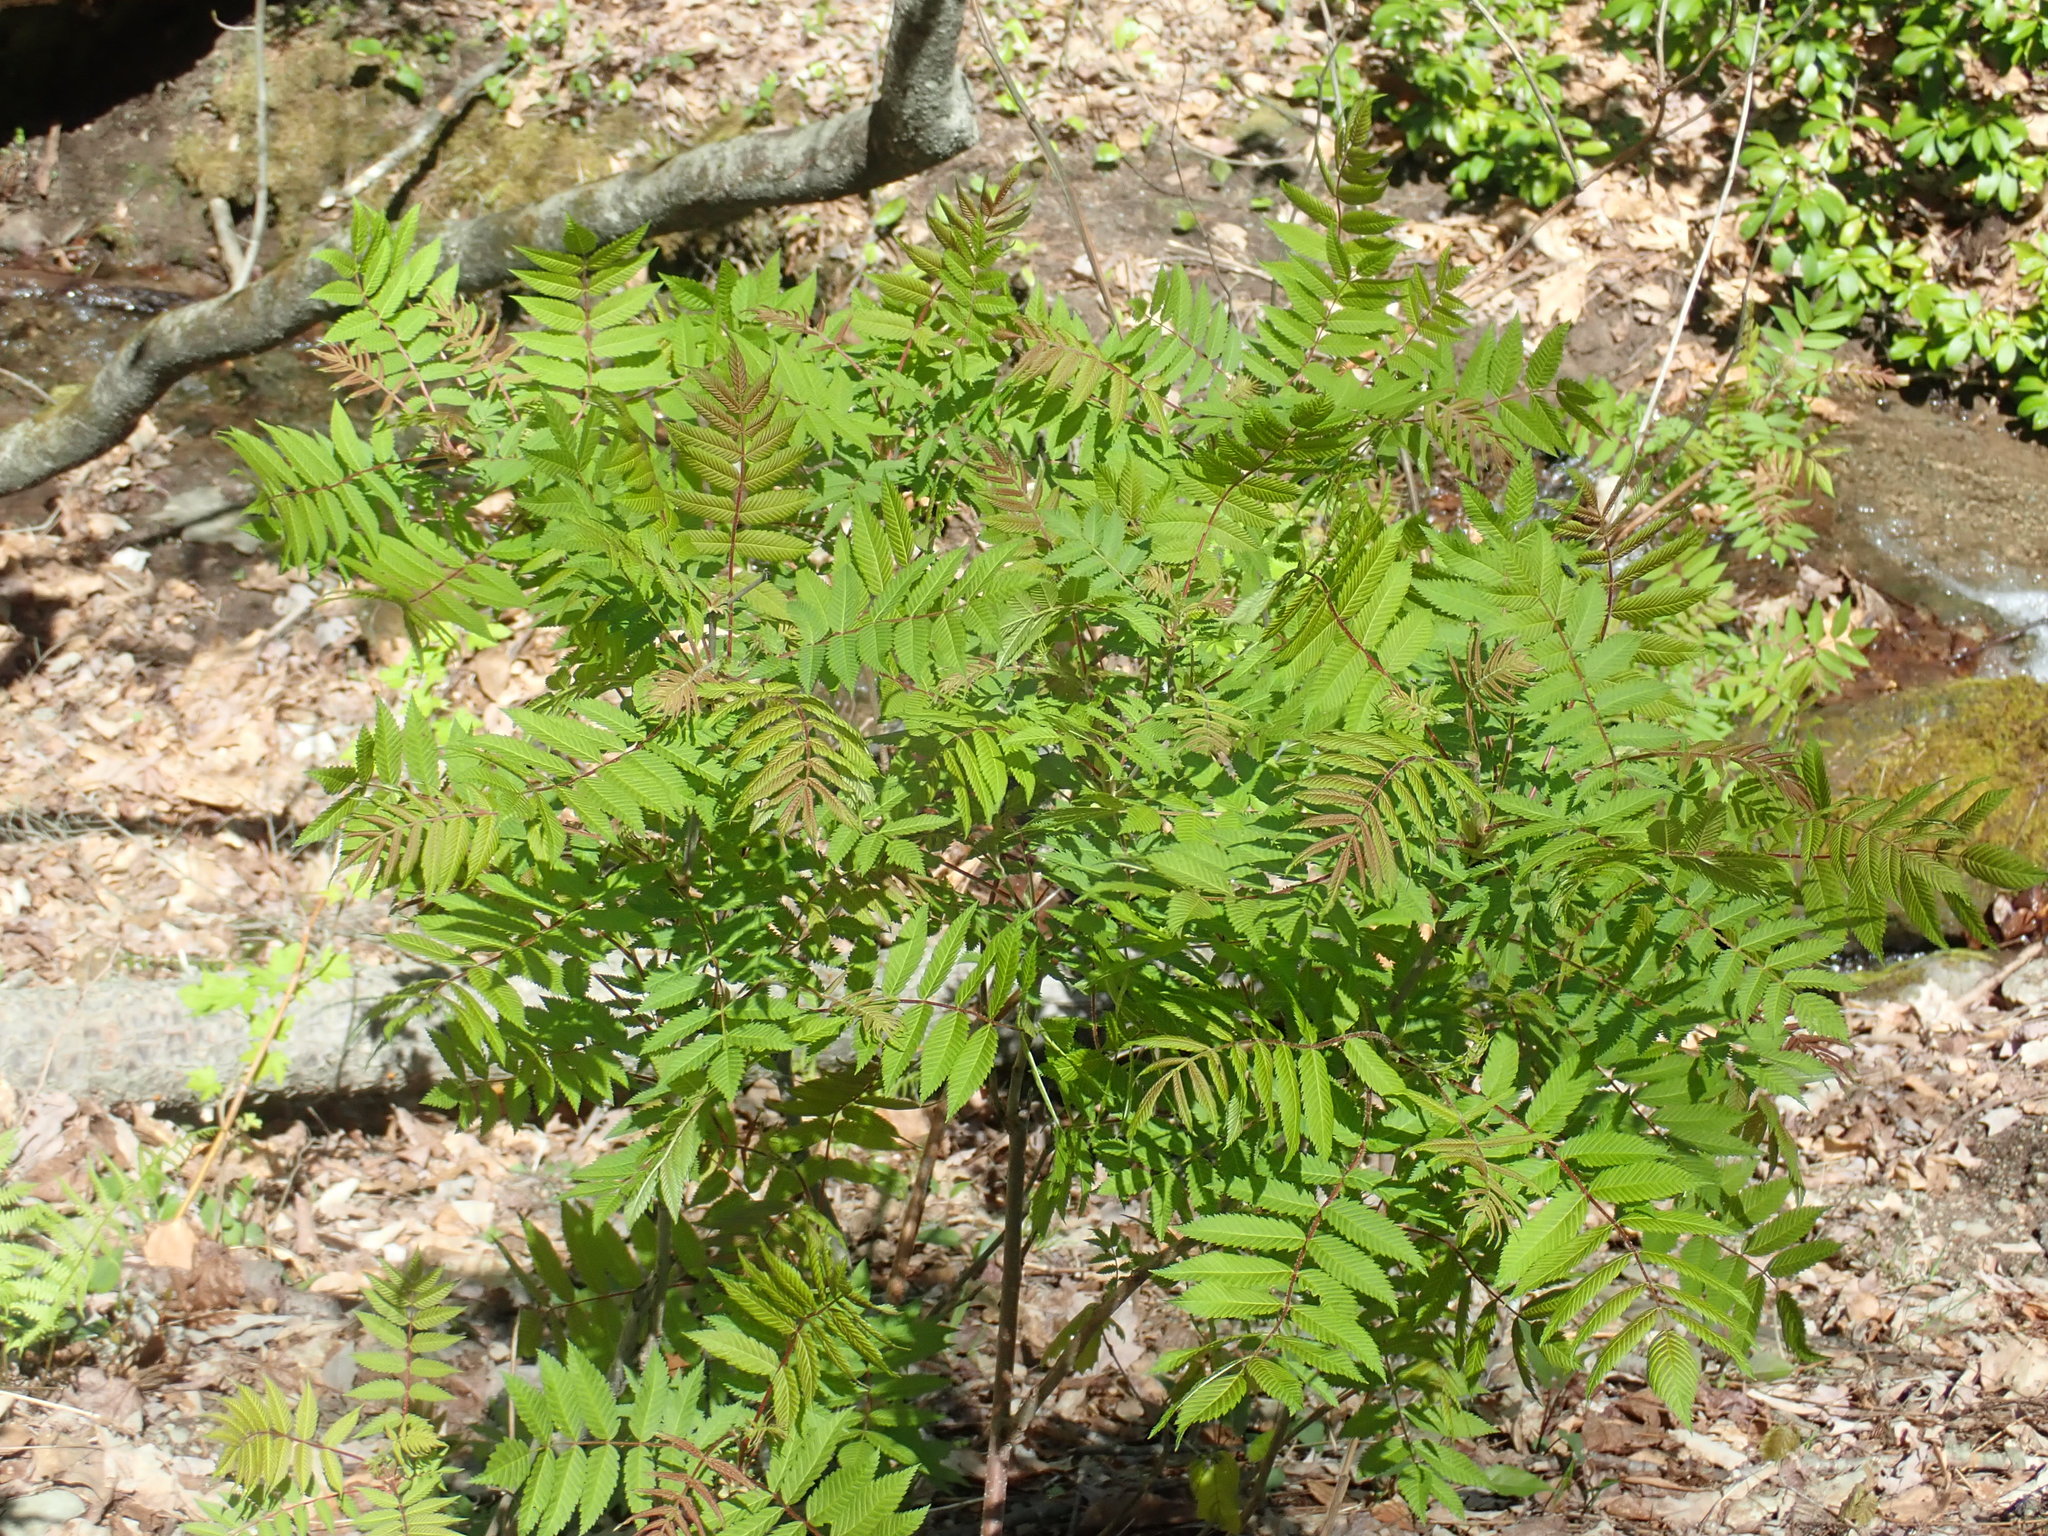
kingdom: Plantae
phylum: Tracheophyta
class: Magnoliopsida
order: Rosales
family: Rosaceae
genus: Sorbaria
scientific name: Sorbaria sorbifolia
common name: False spiraea
